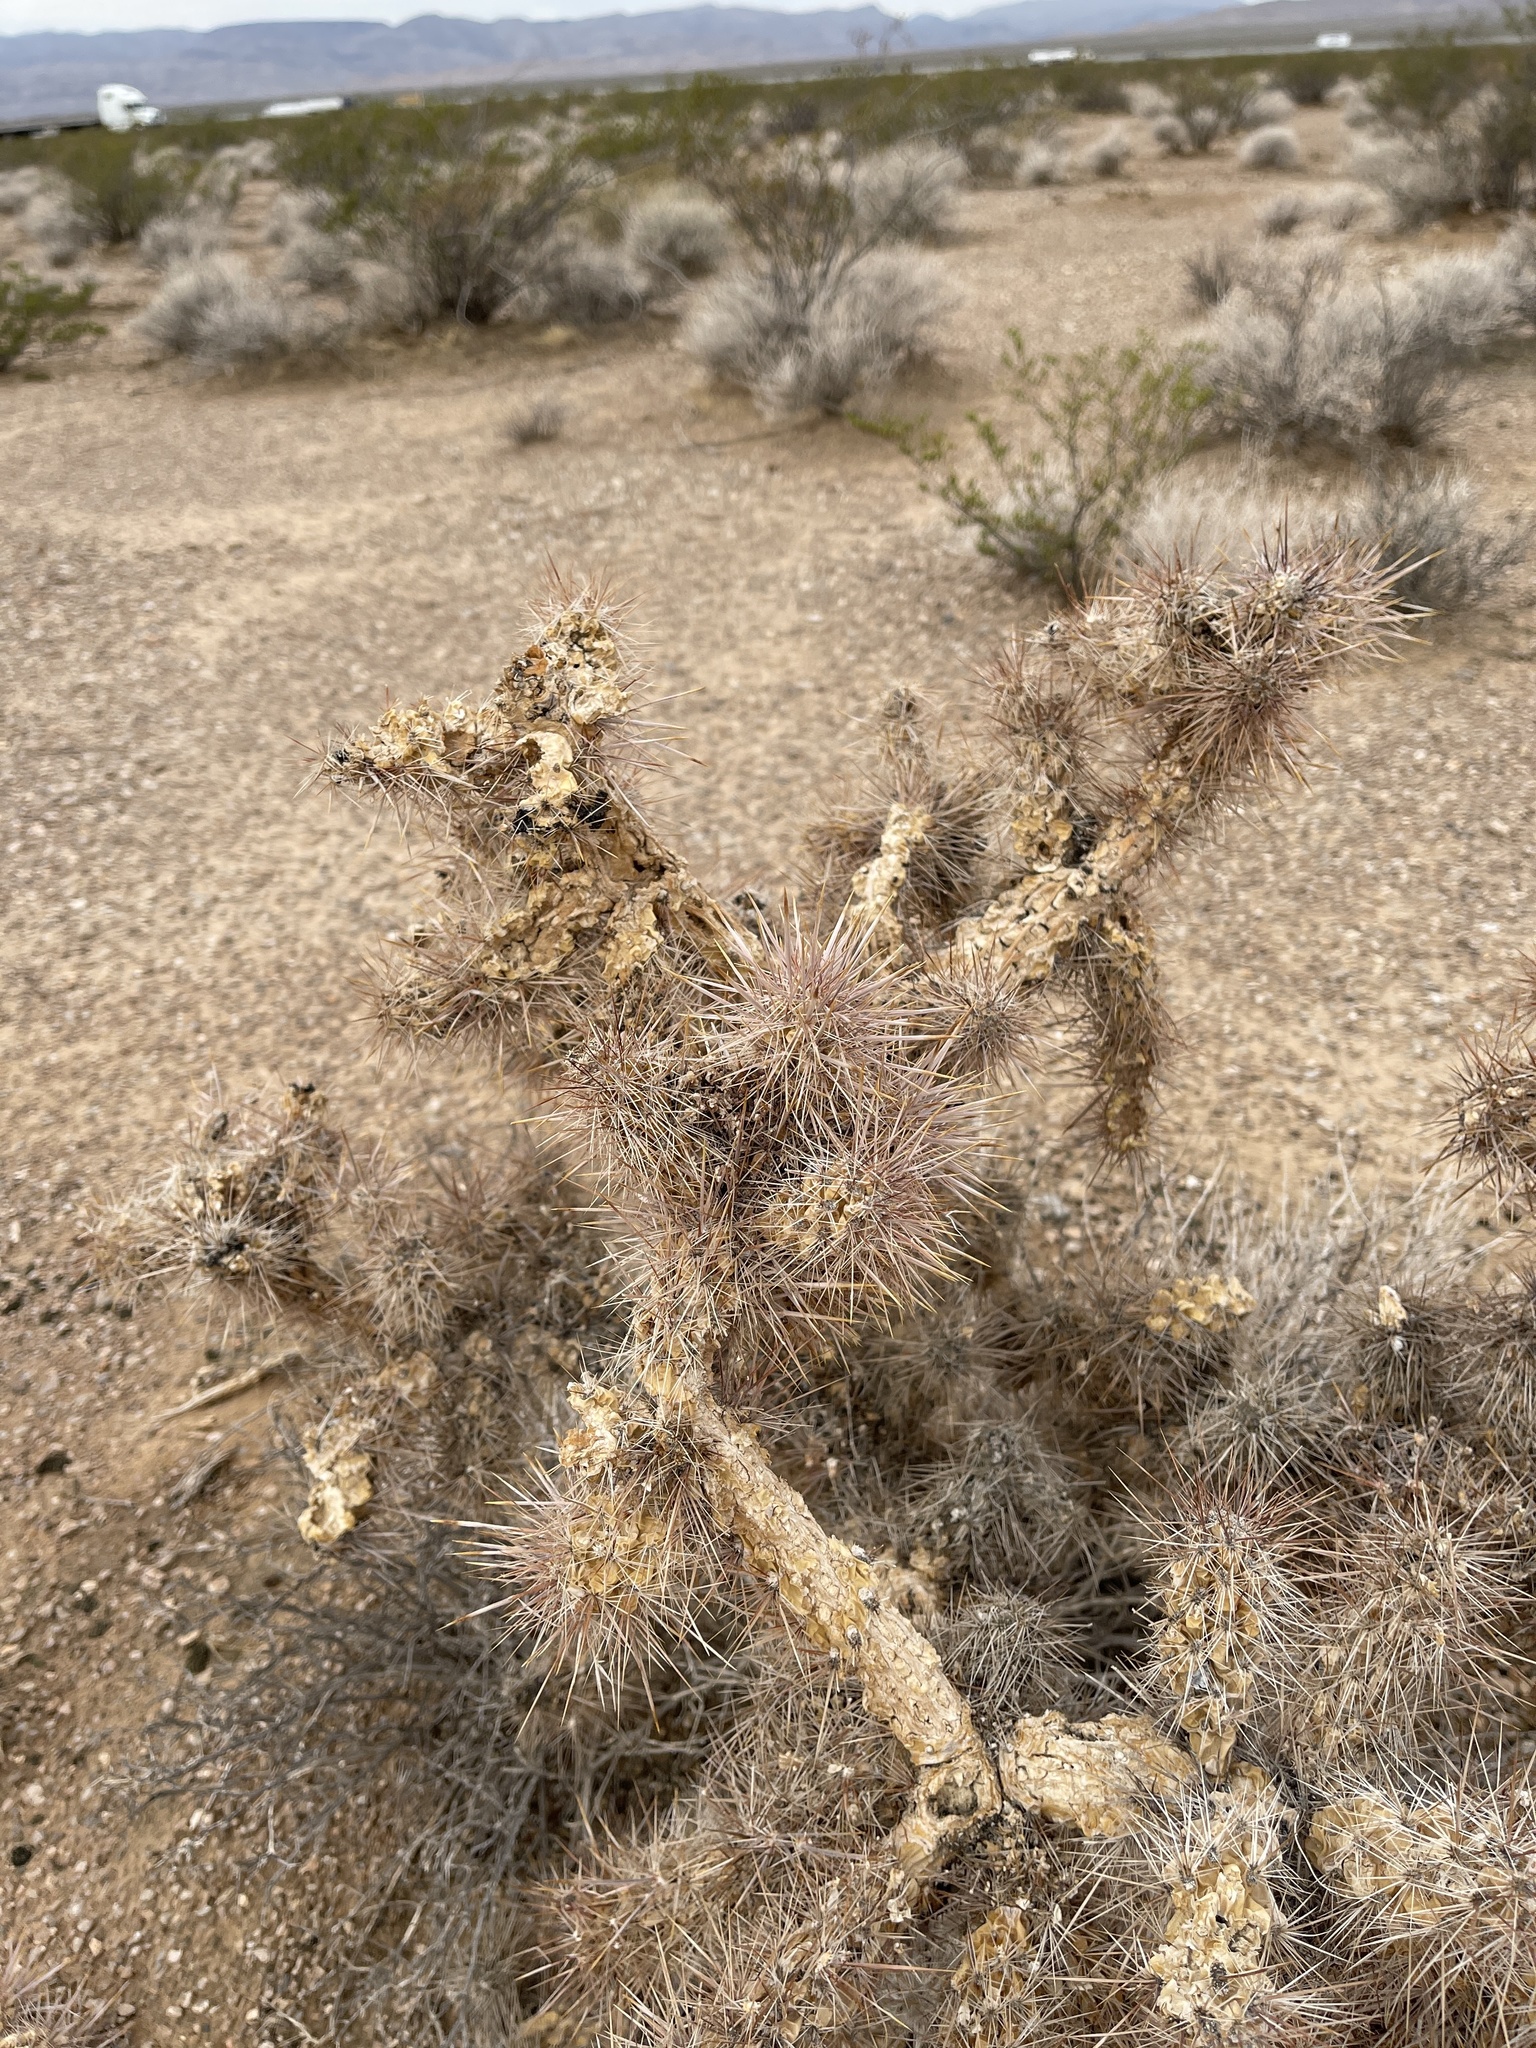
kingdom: Plantae
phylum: Tracheophyta
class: Magnoliopsida
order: Caryophyllales
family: Cactaceae
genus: Cylindropuntia
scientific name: Cylindropuntia echinocarpa
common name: Ground cholla
